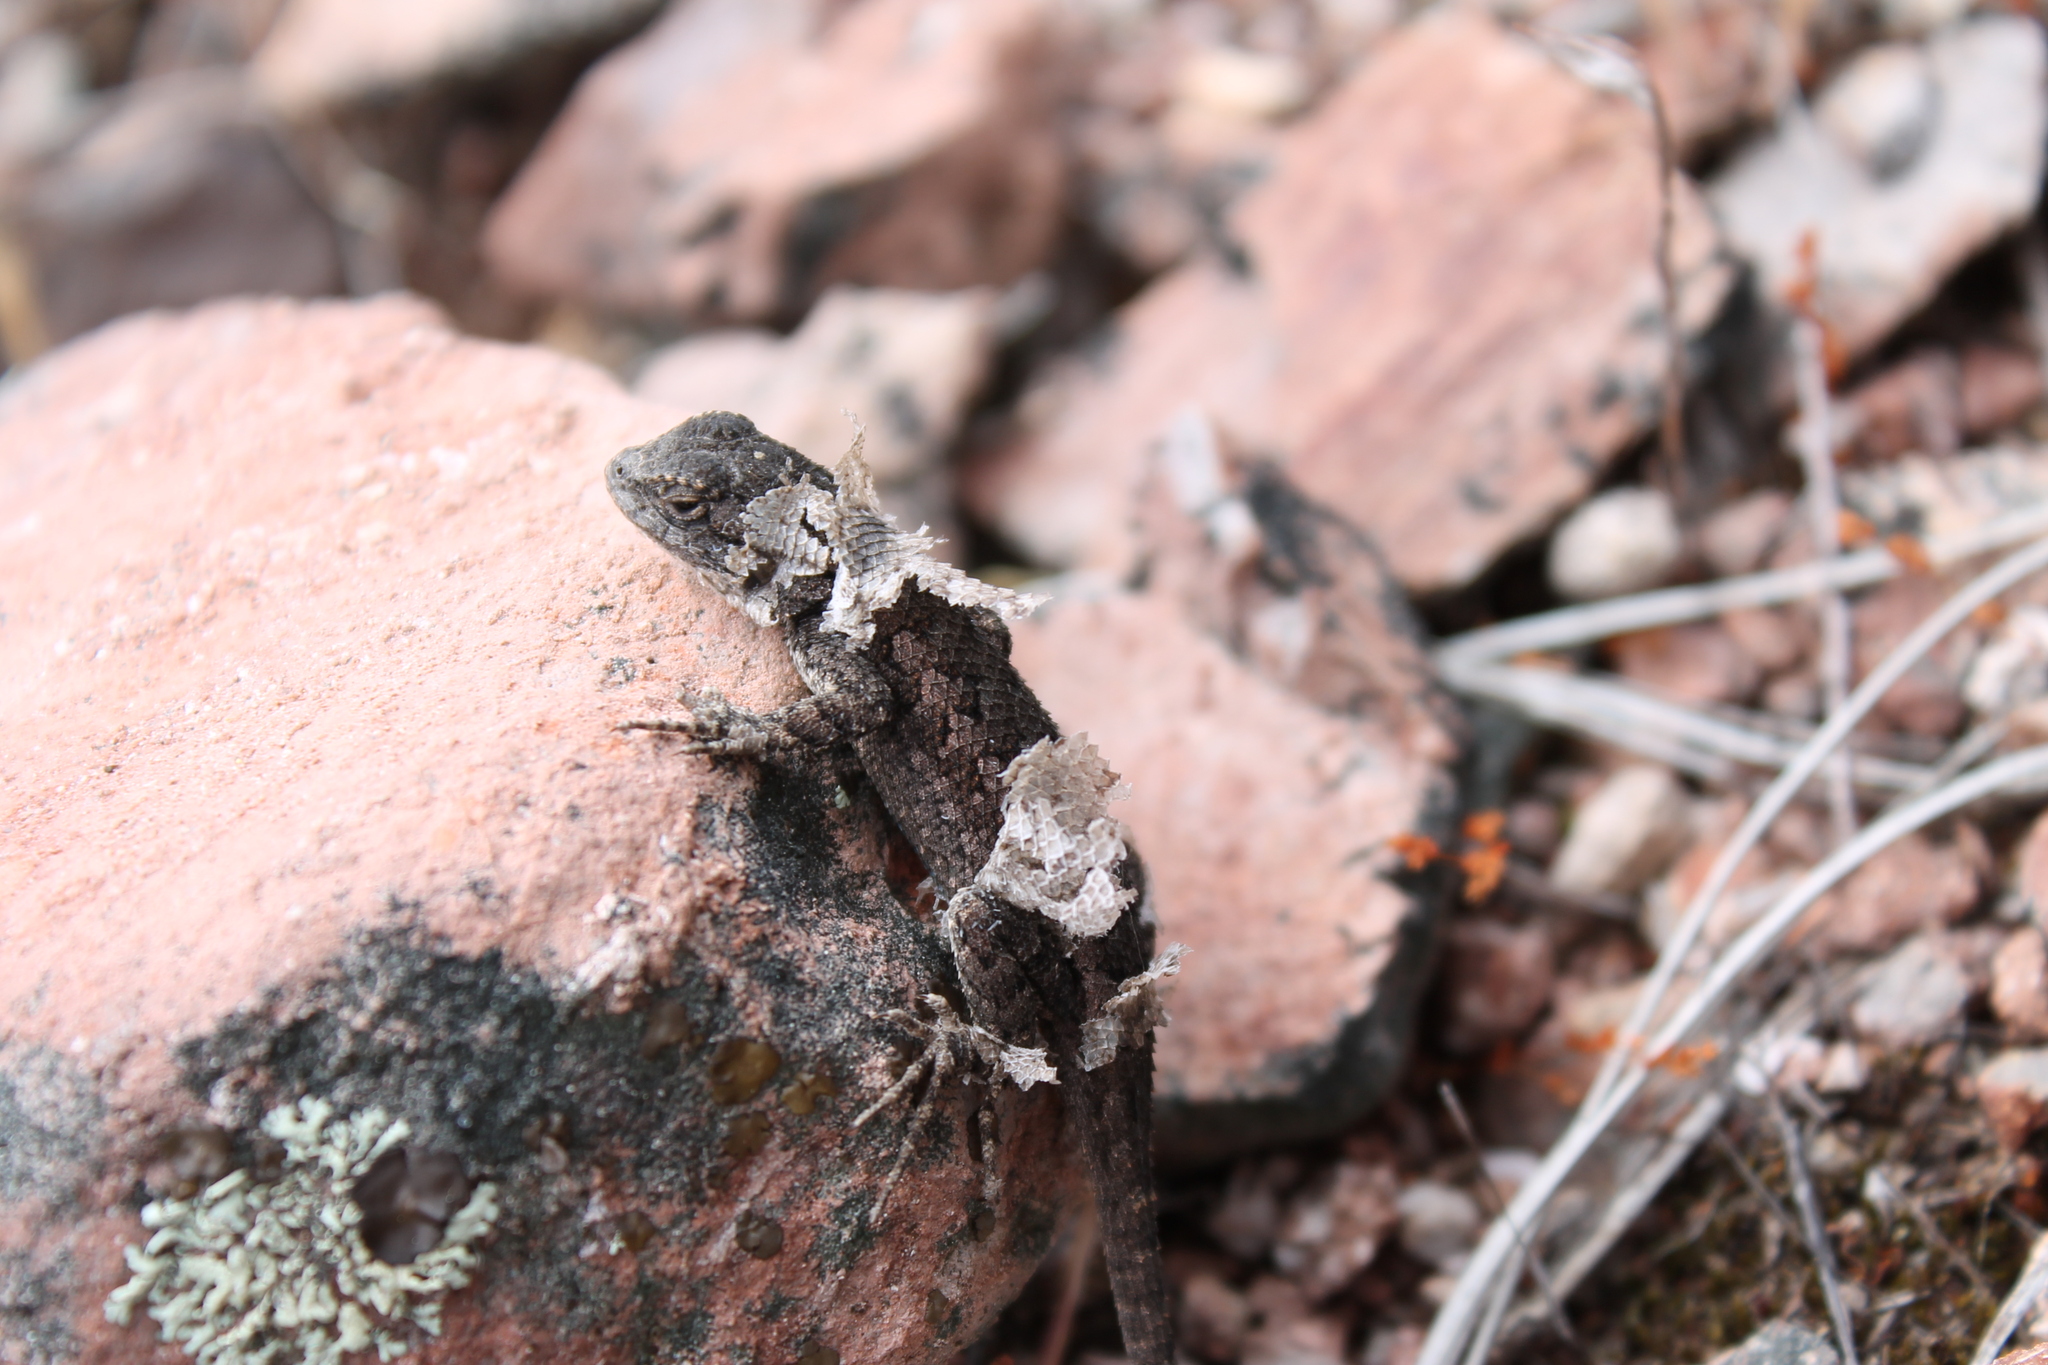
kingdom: Animalia
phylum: Chordata
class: Squamata
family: Phrynosomatidae
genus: Sceloporus
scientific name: Sceloporus occidentalis
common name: Western fence lizard
